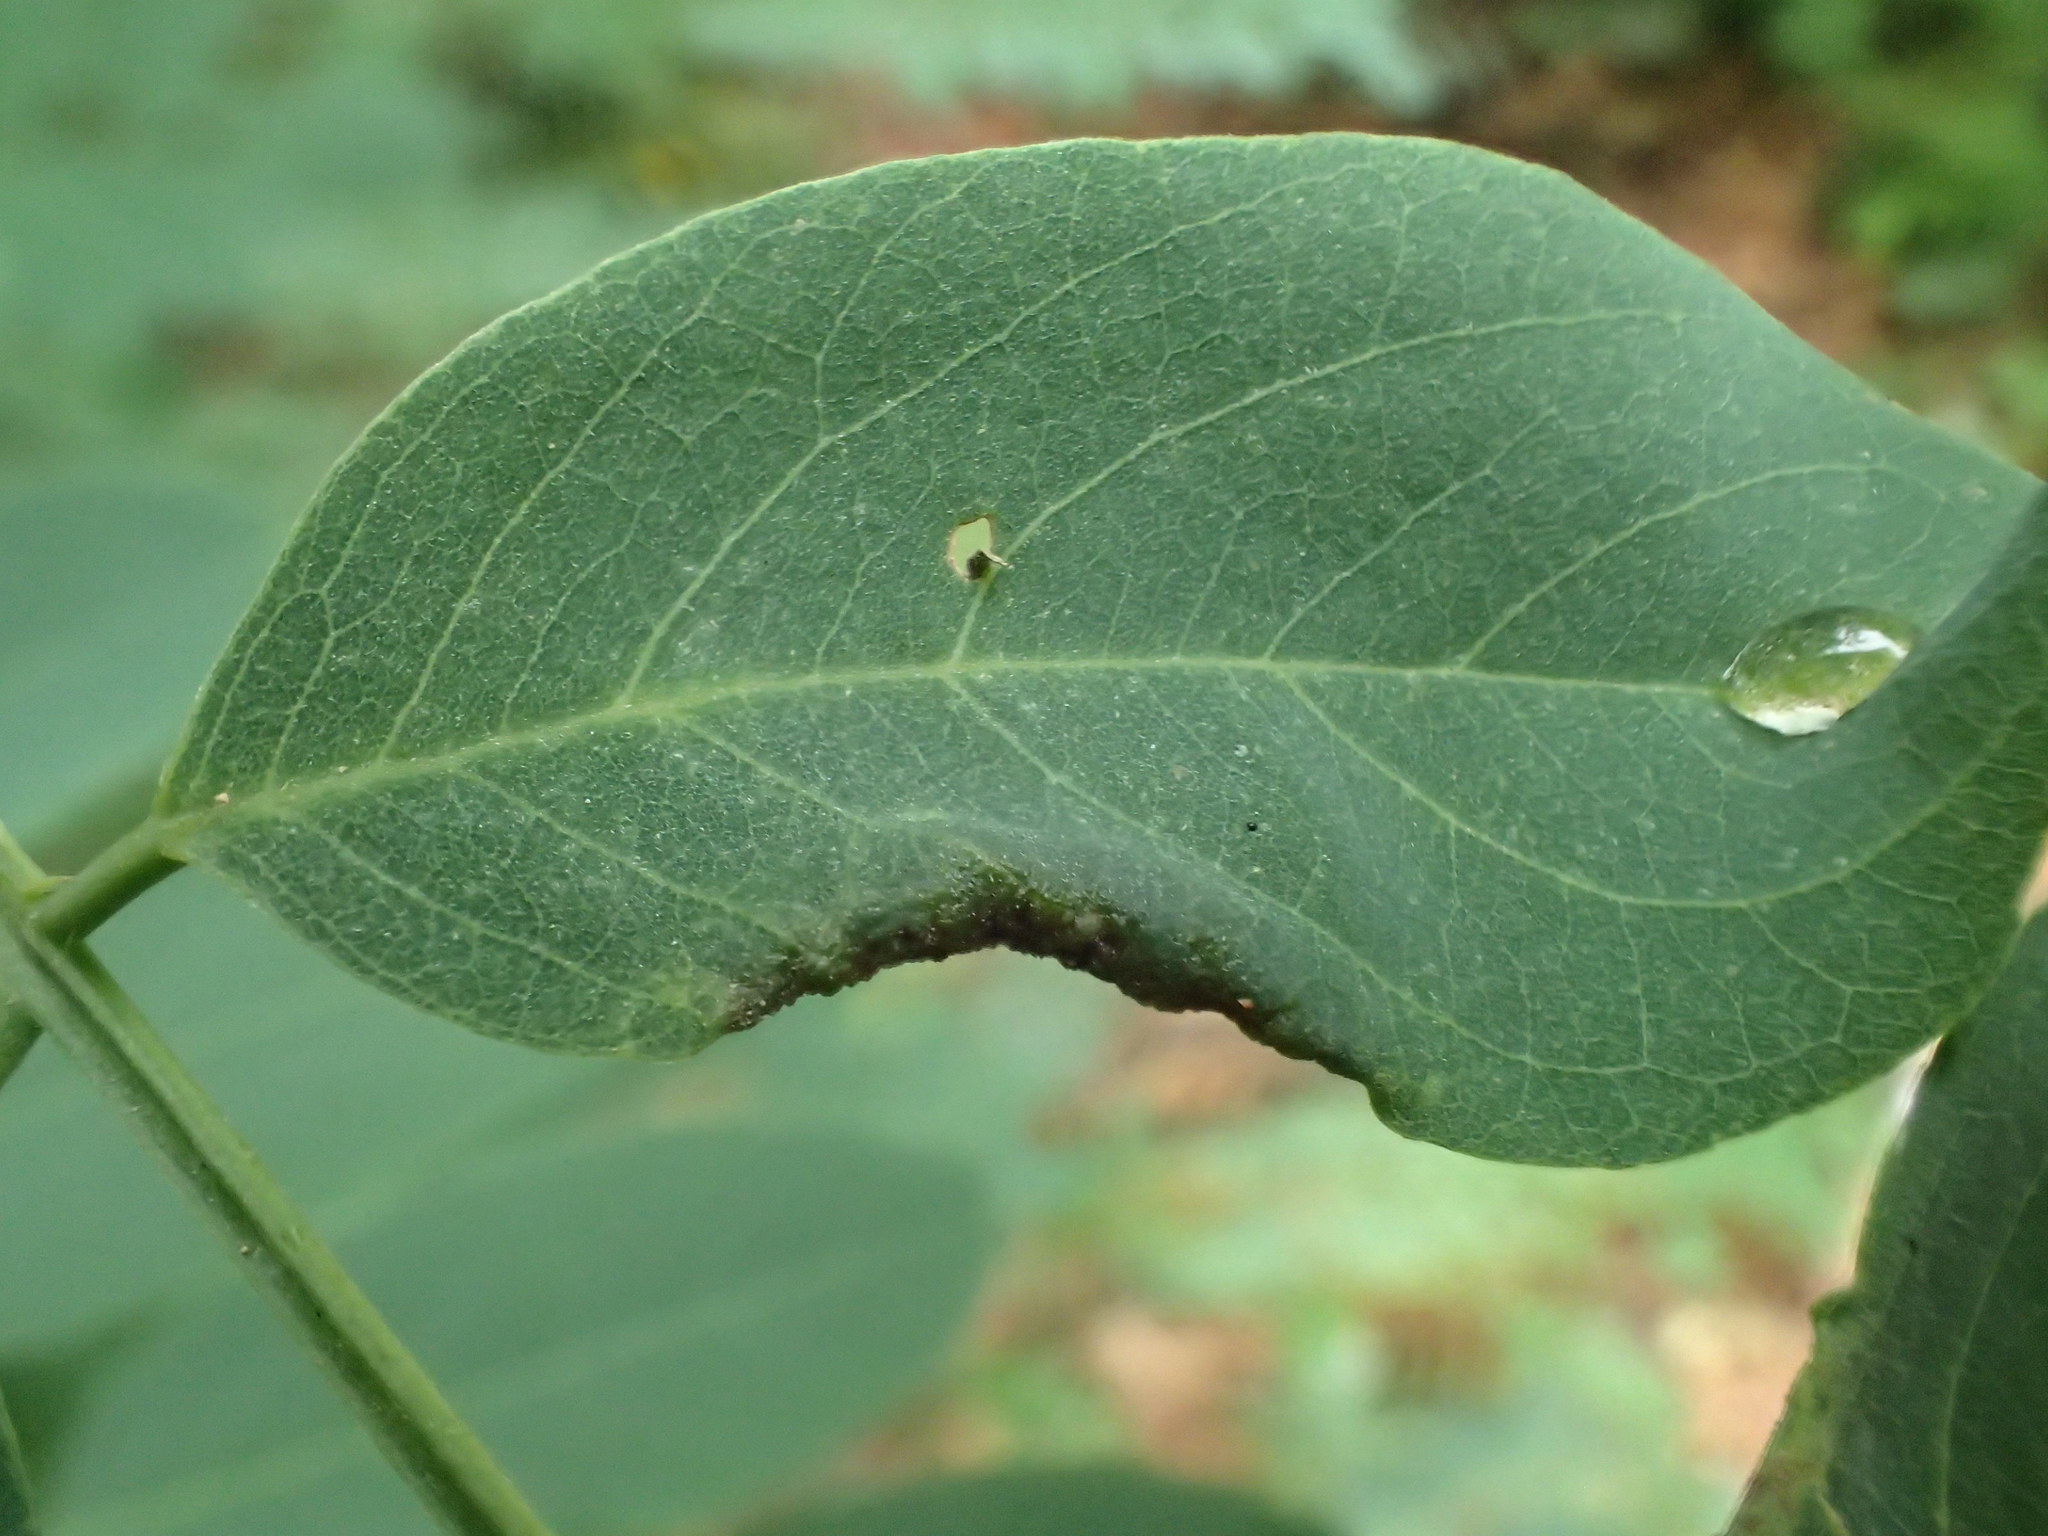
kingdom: Animalia
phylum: Arthropoda
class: Insecta
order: Diptera
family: Cecidomyiidae
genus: Obolodiplosis
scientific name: Obolodiplosis robiniae
